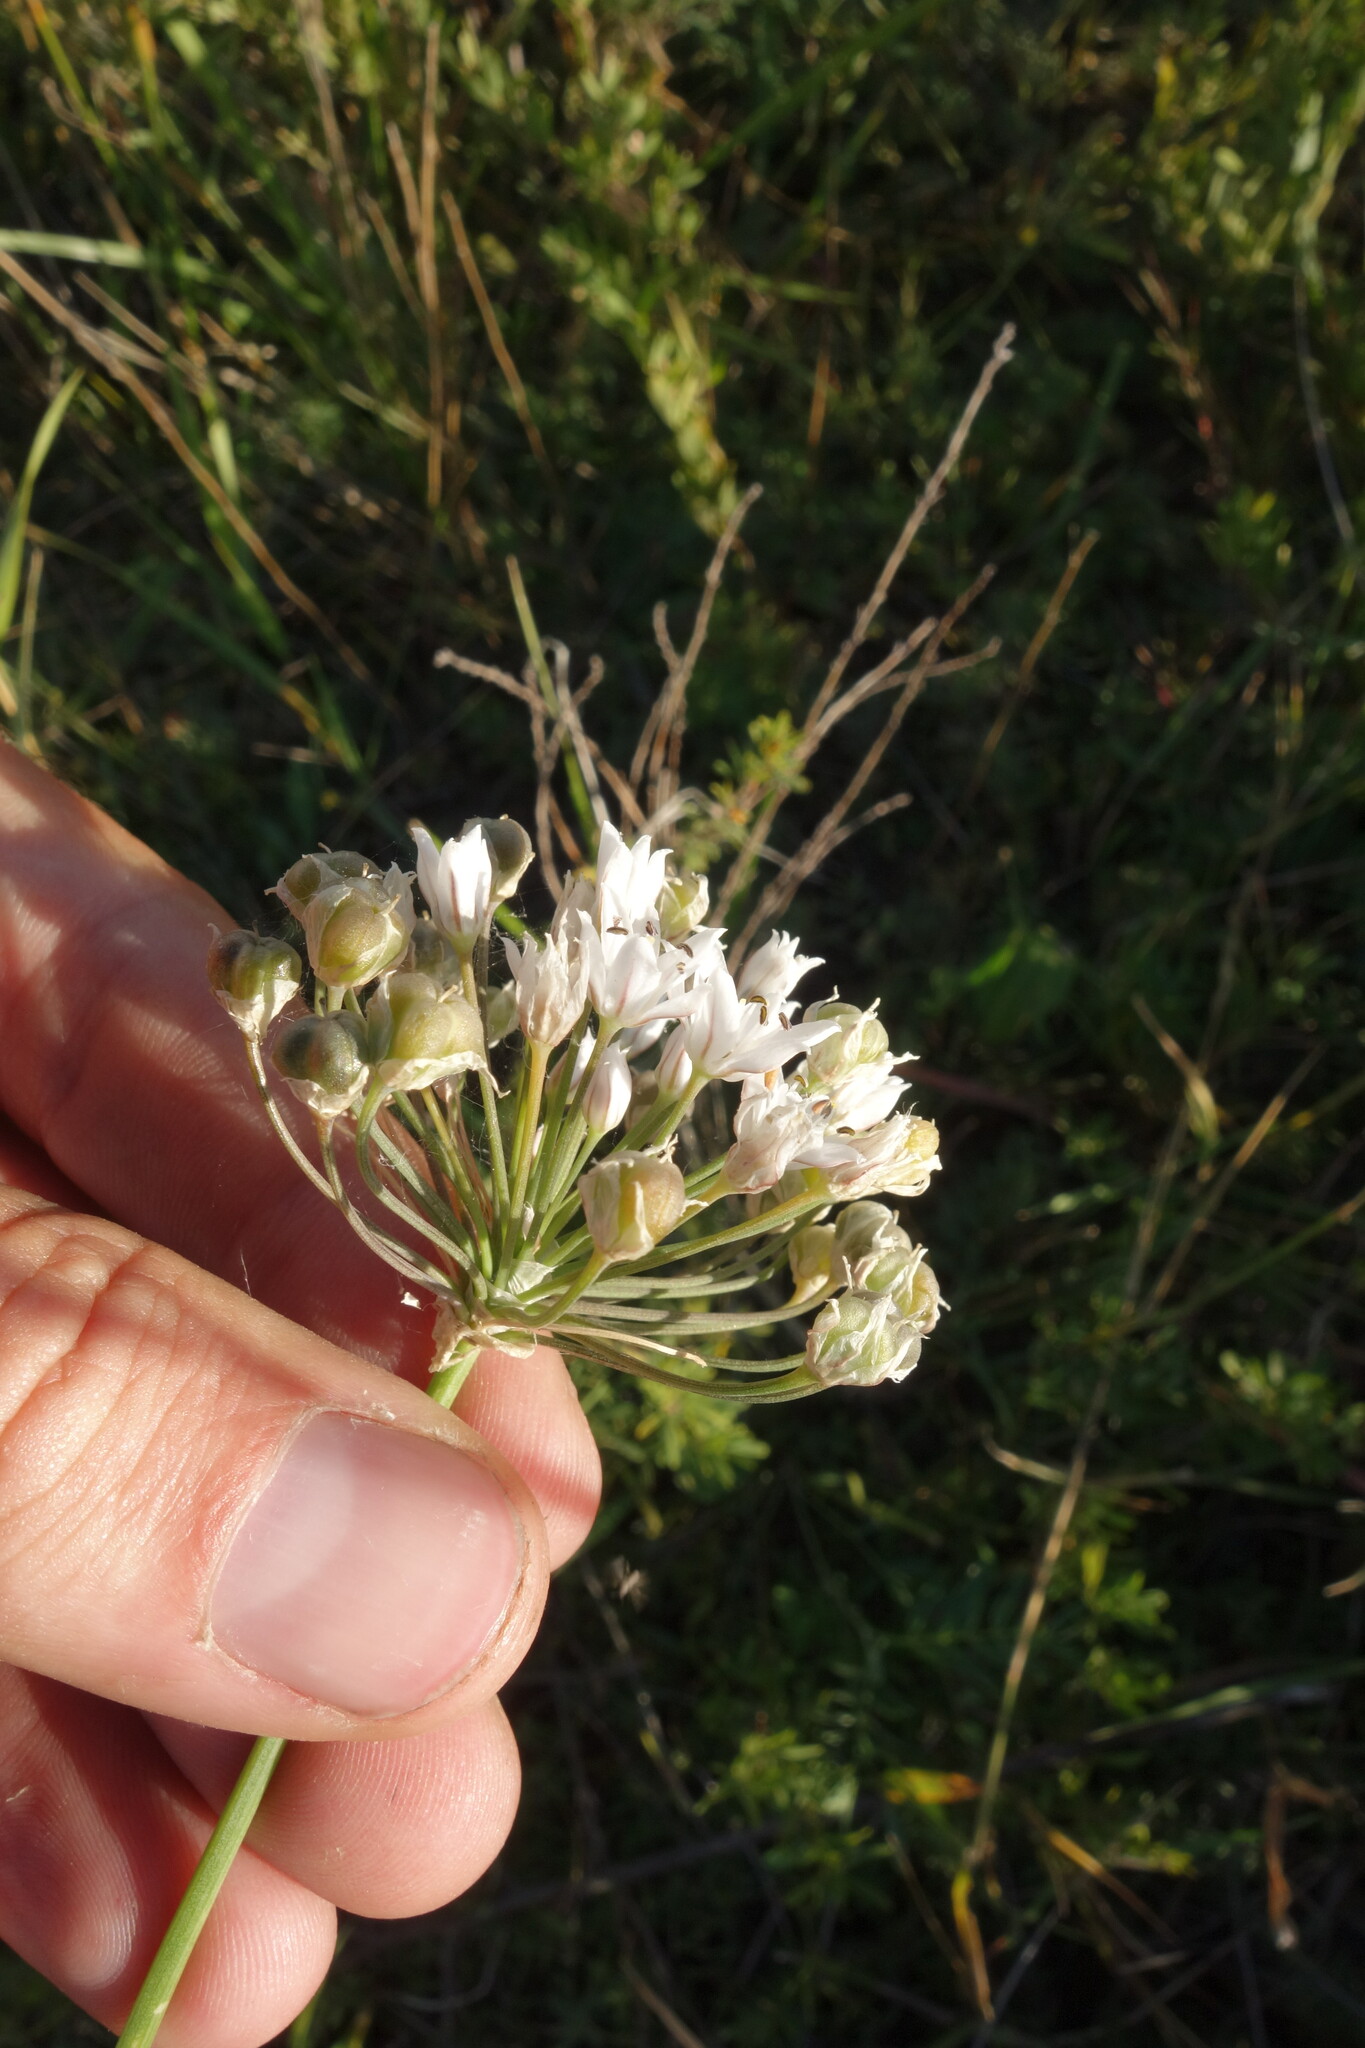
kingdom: Plantae
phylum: Tracheophyta
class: Liliopsida
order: Asparagales
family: Amaryllidaceae
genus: Allium
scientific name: Allium ramosum
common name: Fragrant garlic
